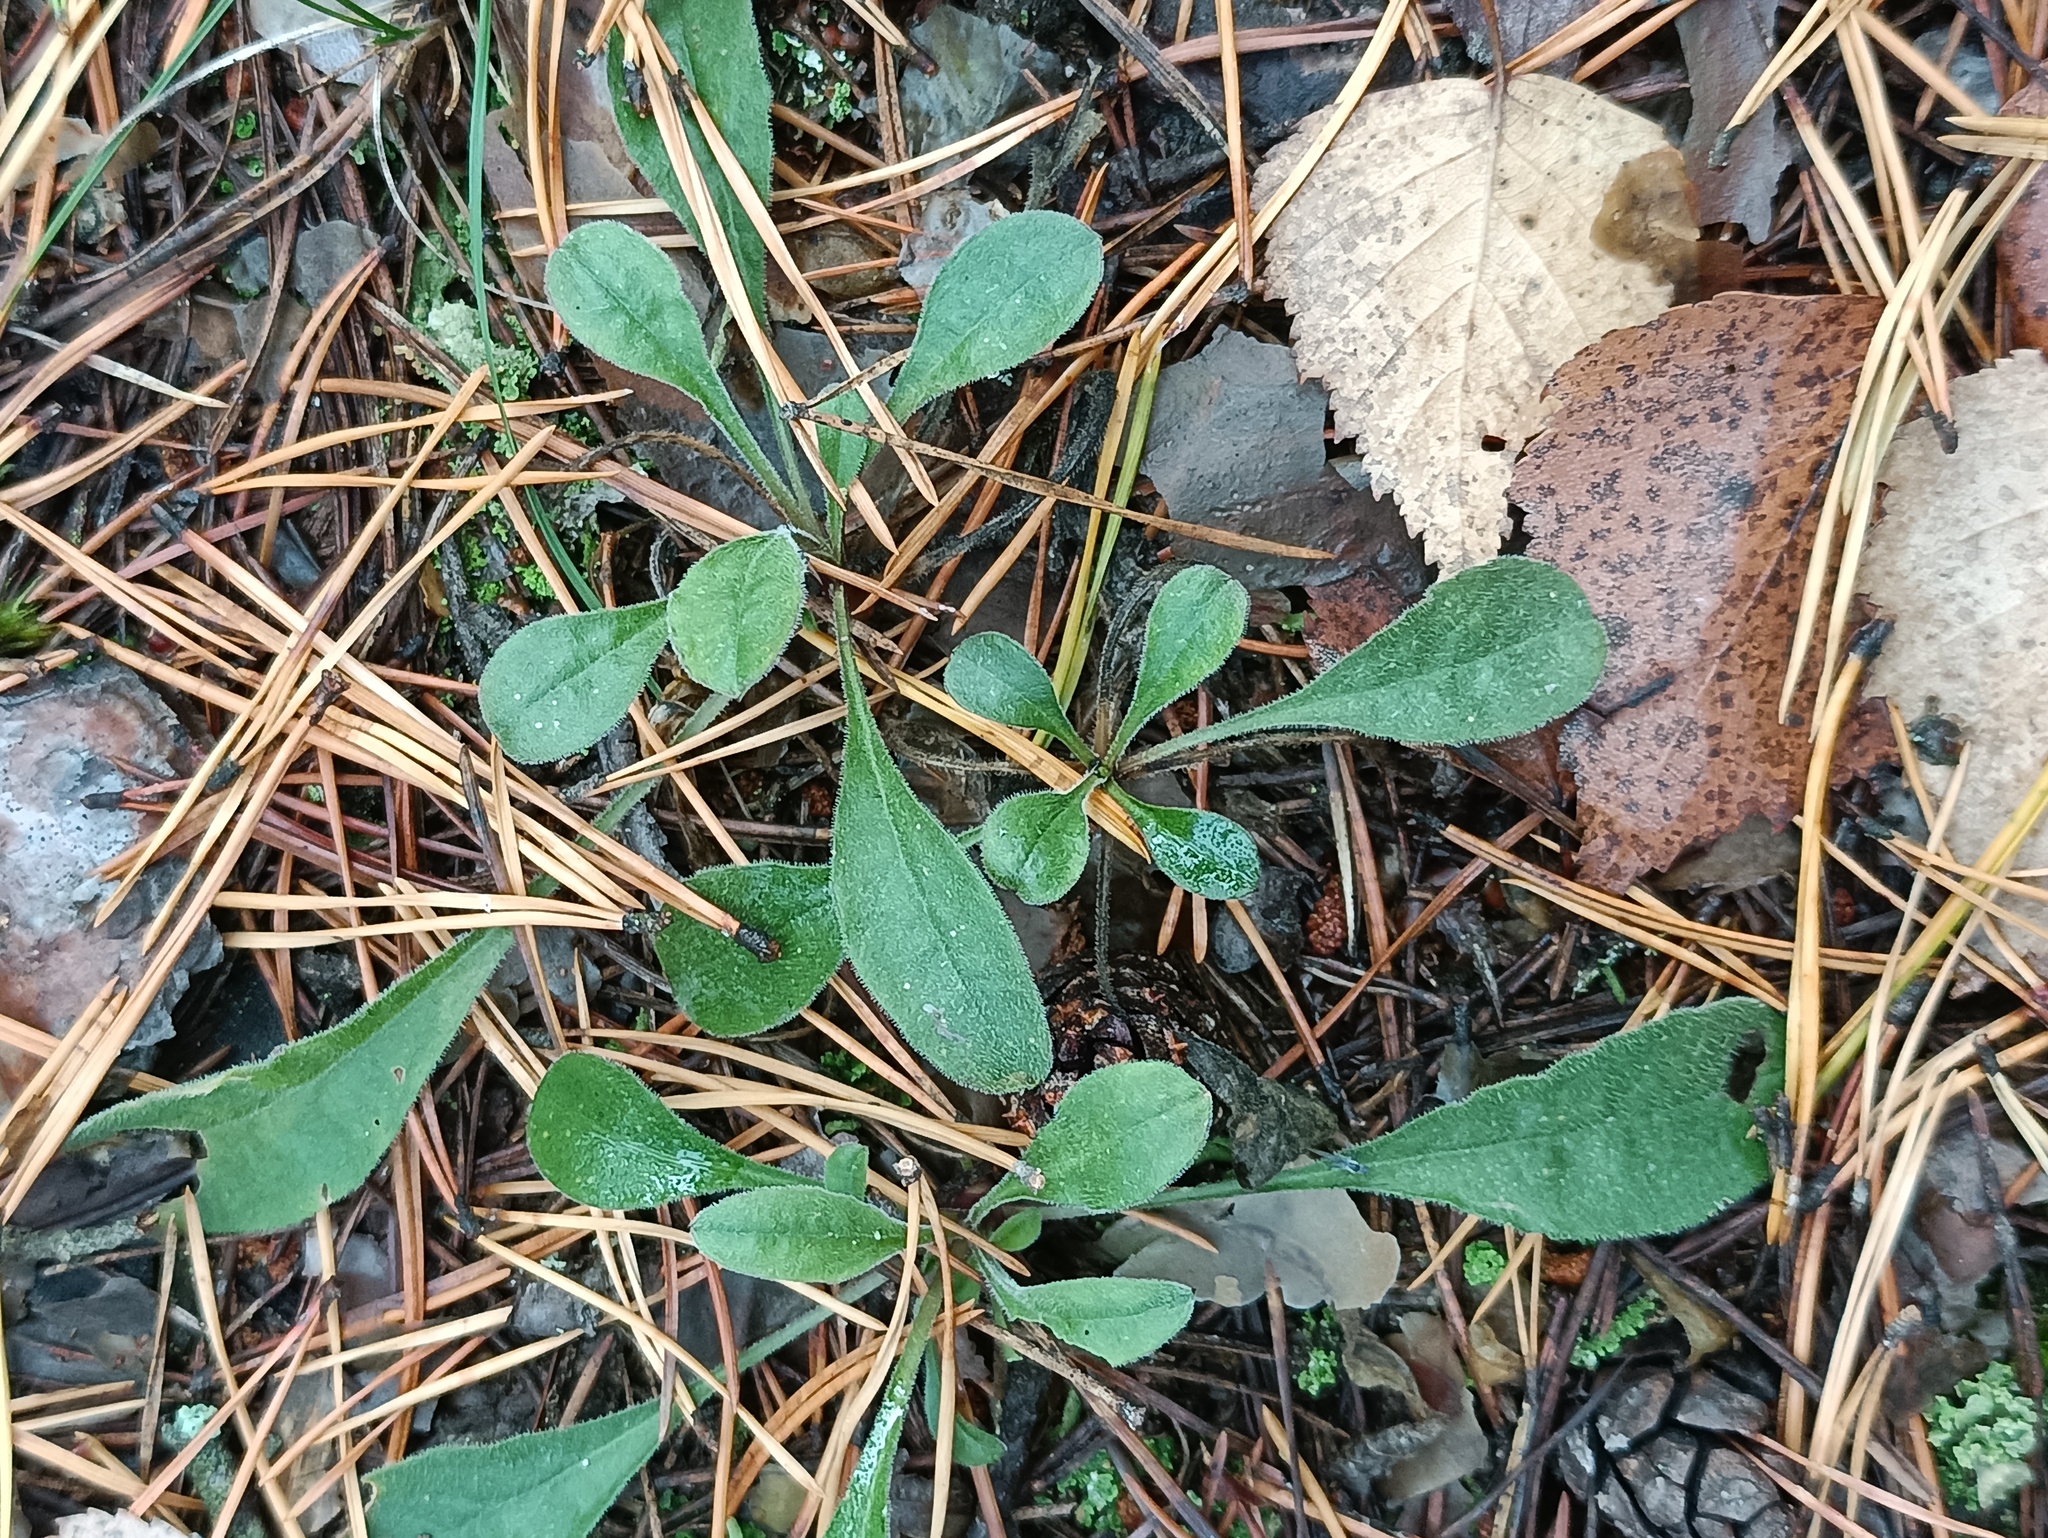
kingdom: Plantae
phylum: Tracheophyta
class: Magnoliopsida
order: Caryophyllales
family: Caryophyllaceae
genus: Silene
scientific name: Silene nutans
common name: Nottingham catchfly
